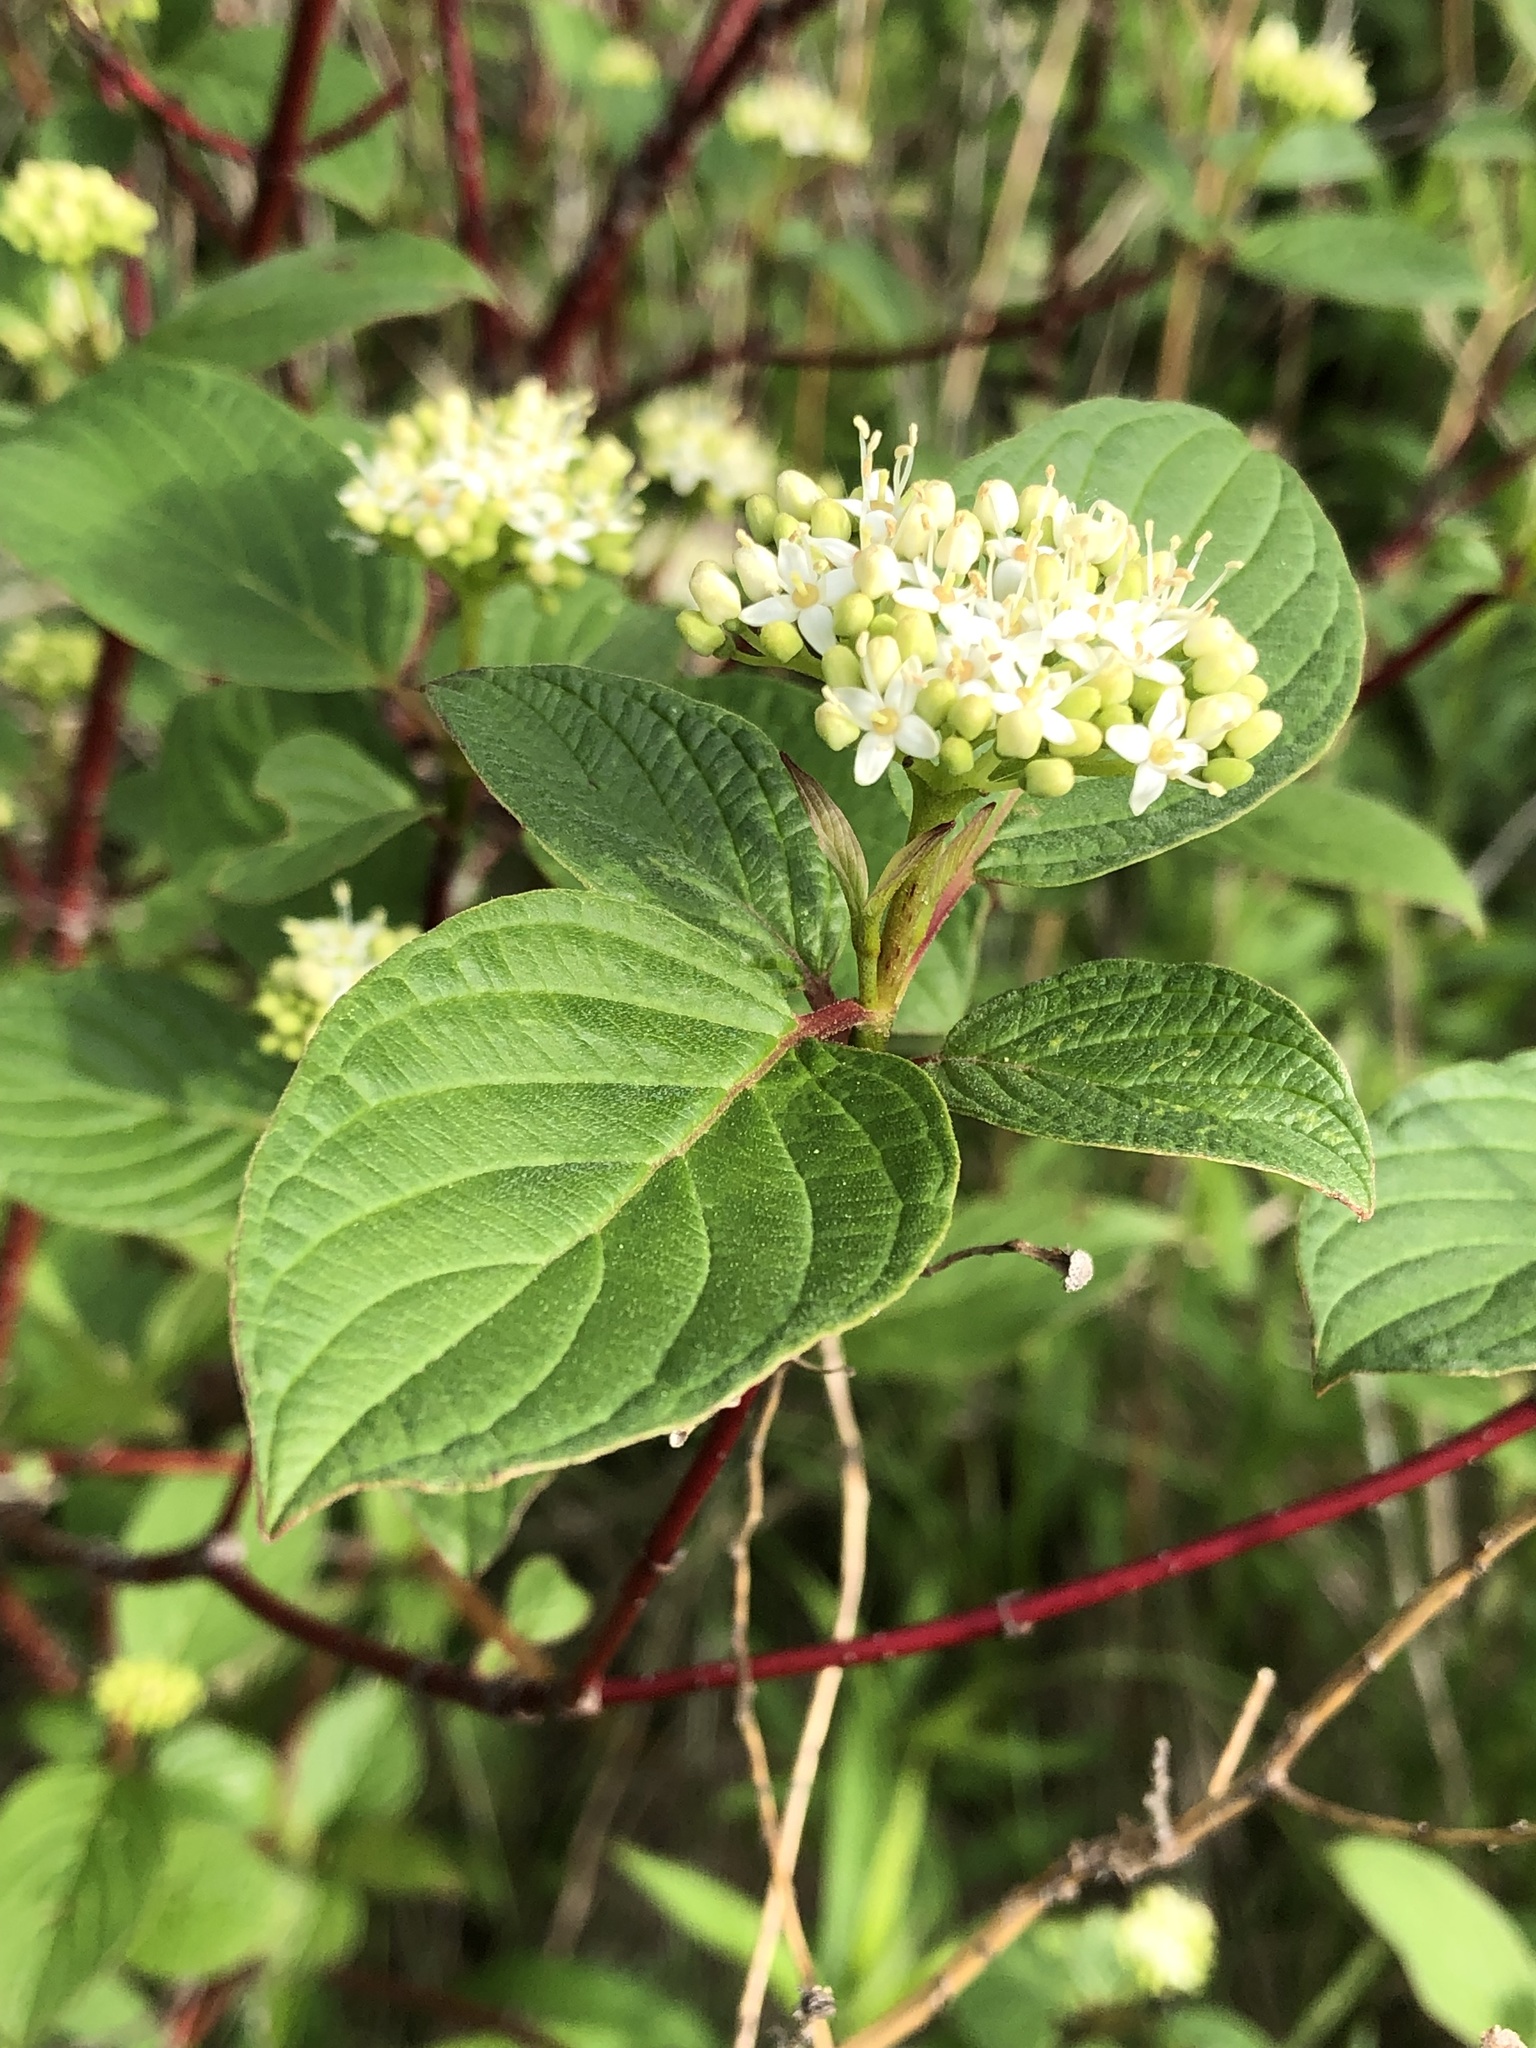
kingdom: Plantae
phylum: Tracheophyta
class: Magnoliopsida
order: Cornales
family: Cornaceae
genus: Cornus
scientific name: Cornus sericea
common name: Red-osier dogwood
